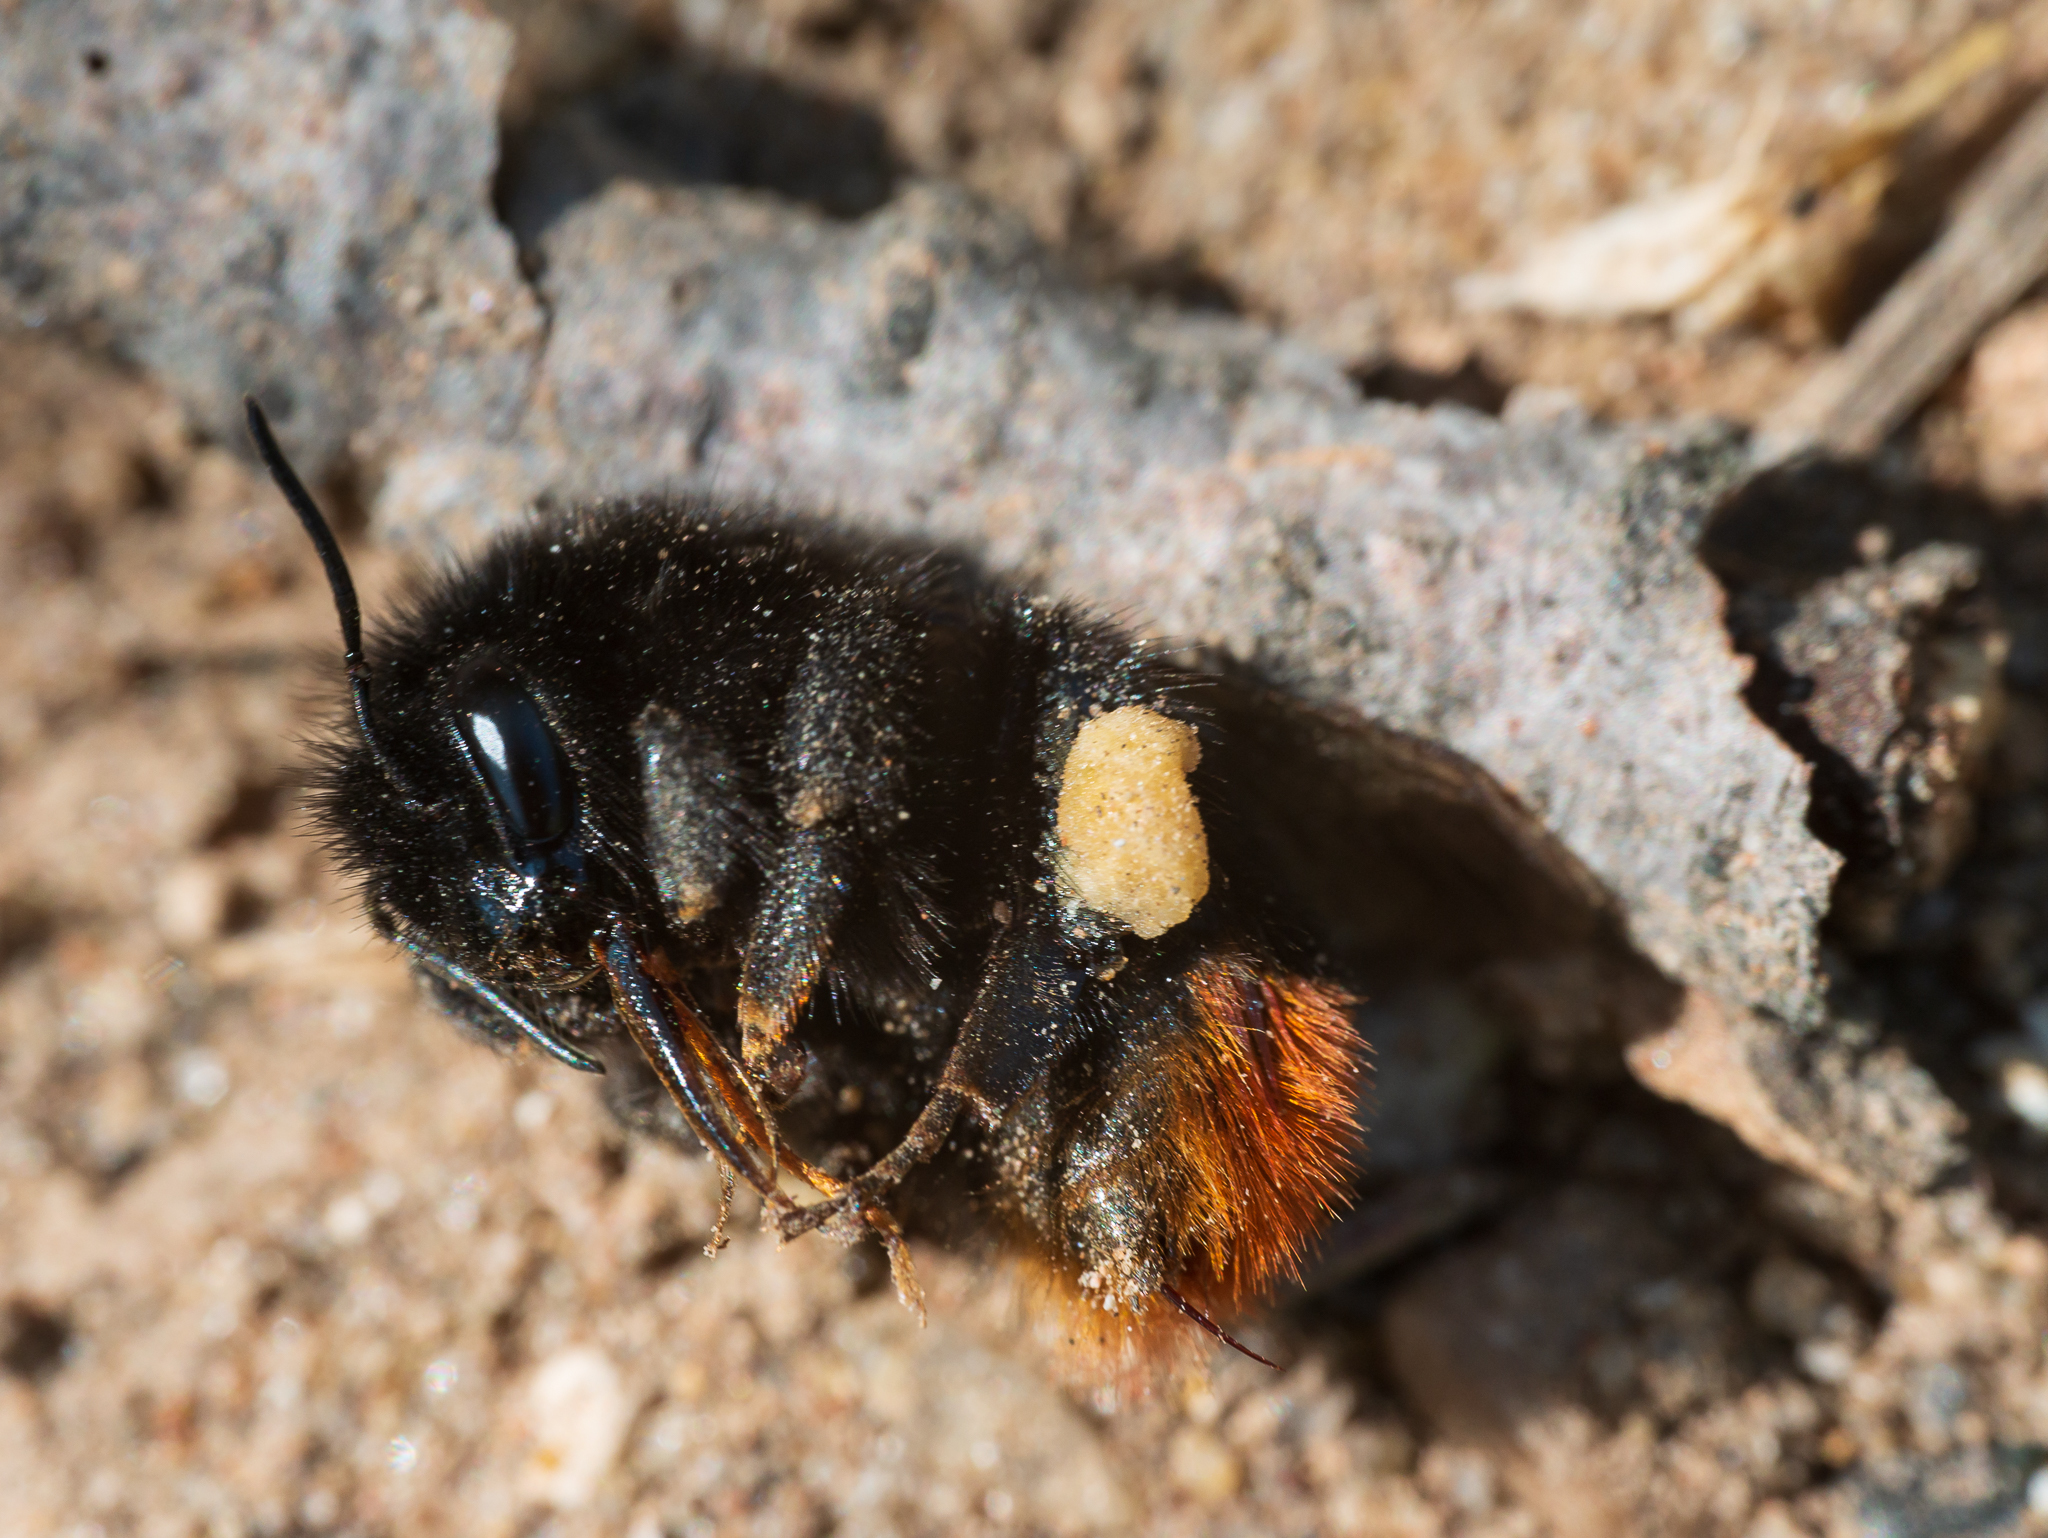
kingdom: Animalia
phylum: Arthropoda
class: Insecta
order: Hymenoptera
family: Apidae
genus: Bombus
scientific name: Bombus
